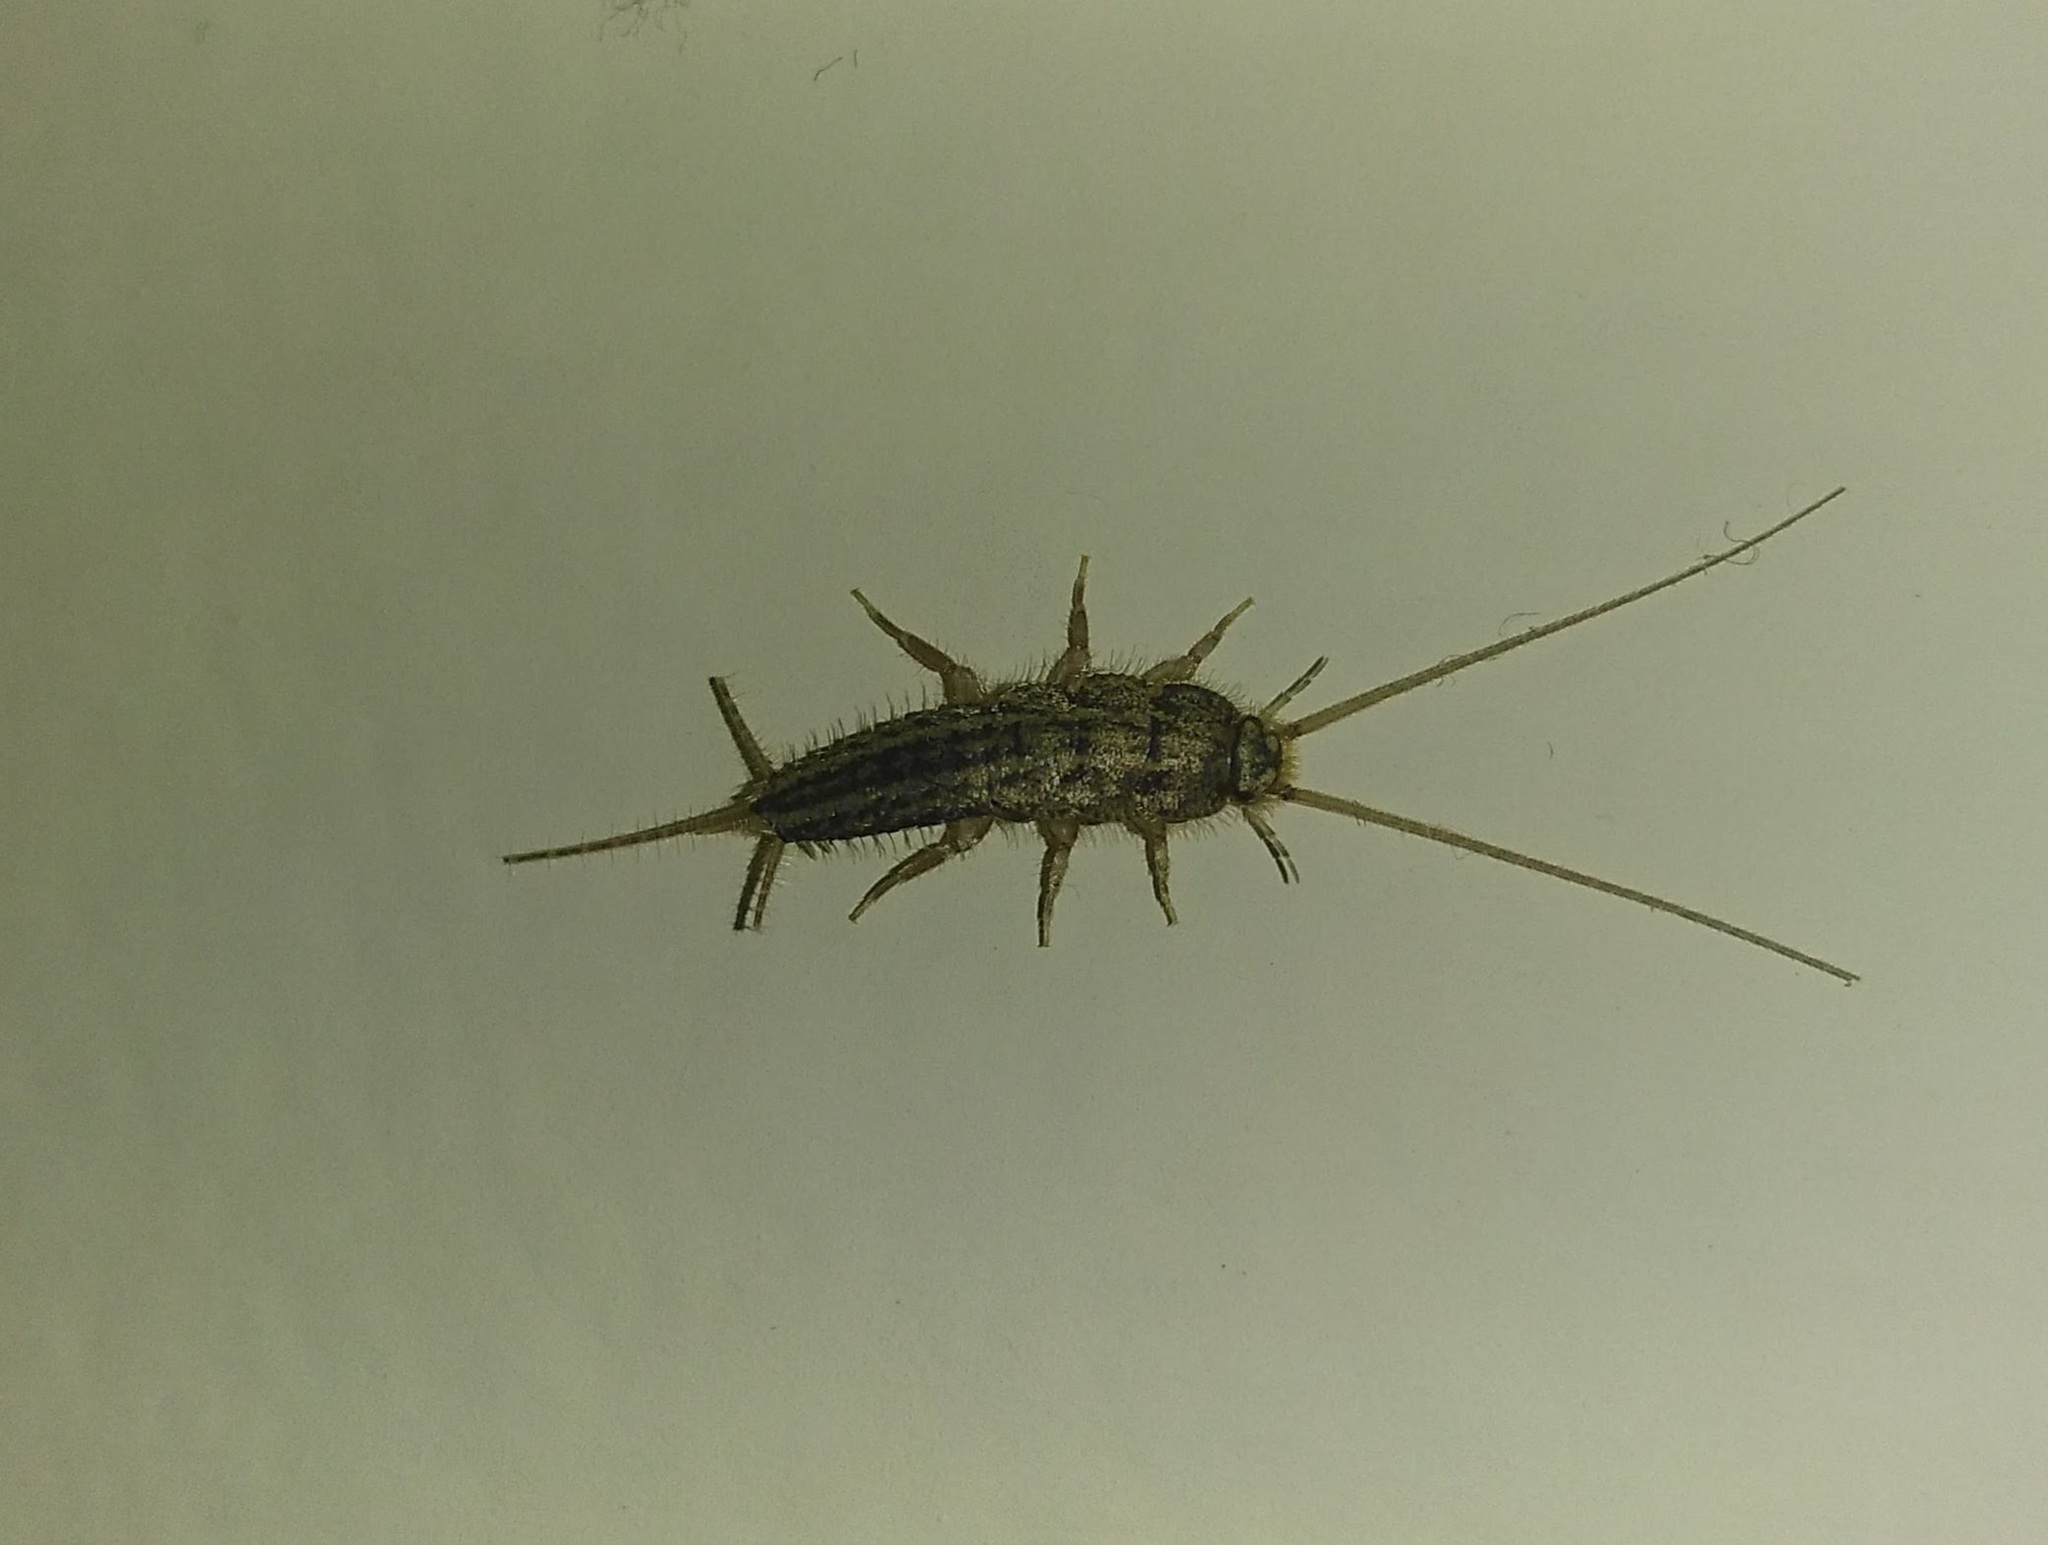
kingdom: Animalia
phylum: Arthropoda
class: Insecta
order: Zygentoma
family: Lepismatidae
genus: Ctenolepisma
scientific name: Ctenolepisma lineata
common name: Four-lined silverfish
